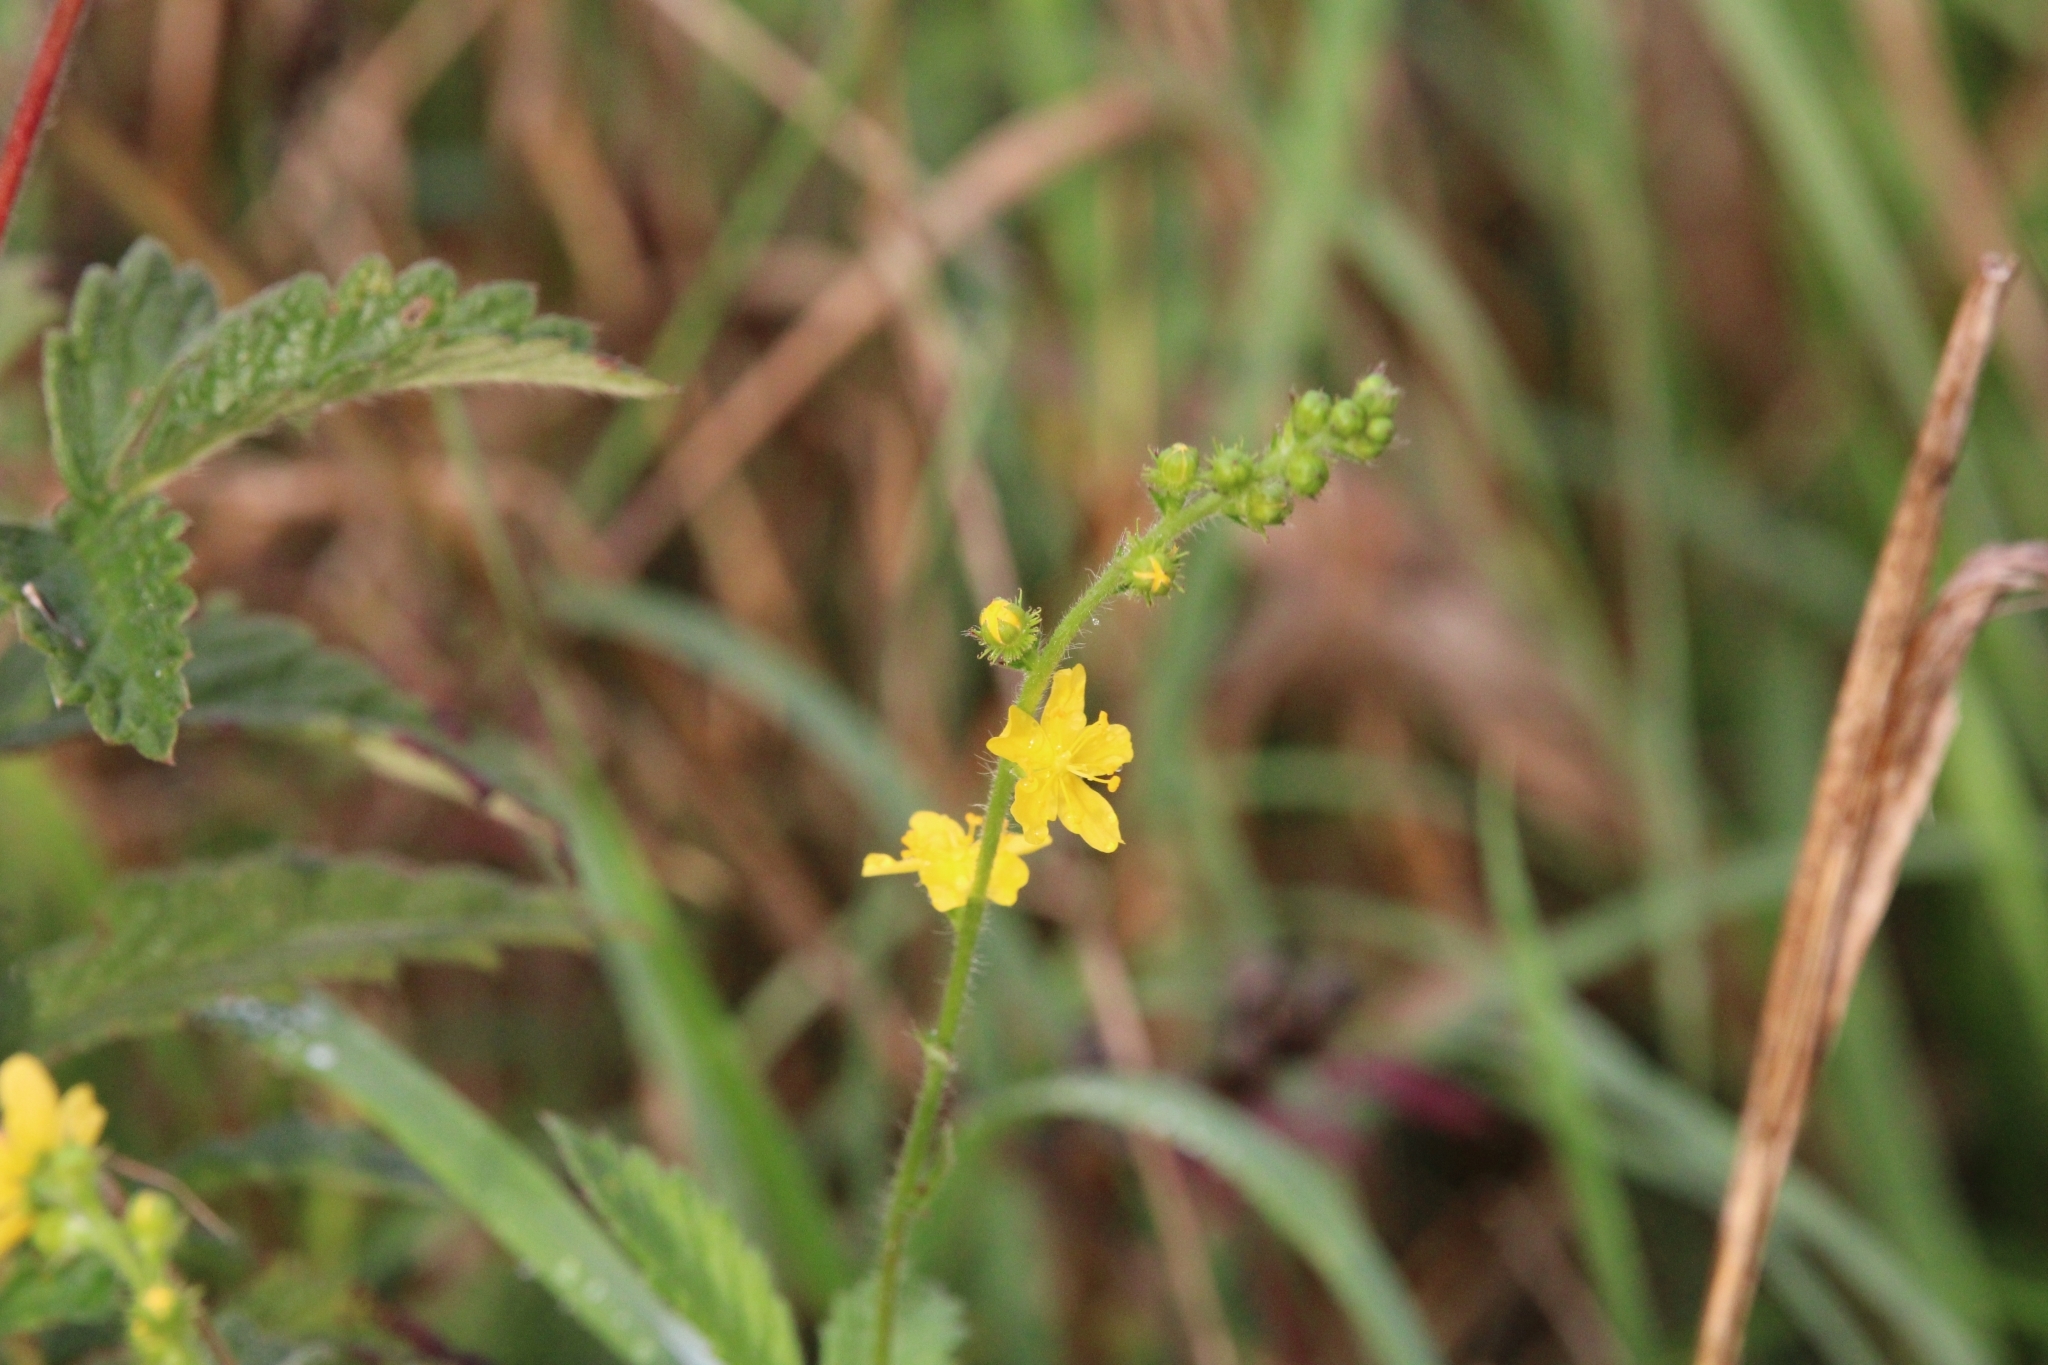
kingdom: Plantae
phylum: Tracheophyta
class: Magnoliopsida
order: Rosales
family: Rosaceae
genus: Agrimonia
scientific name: Agrimonia eupatoria
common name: Agrimony
